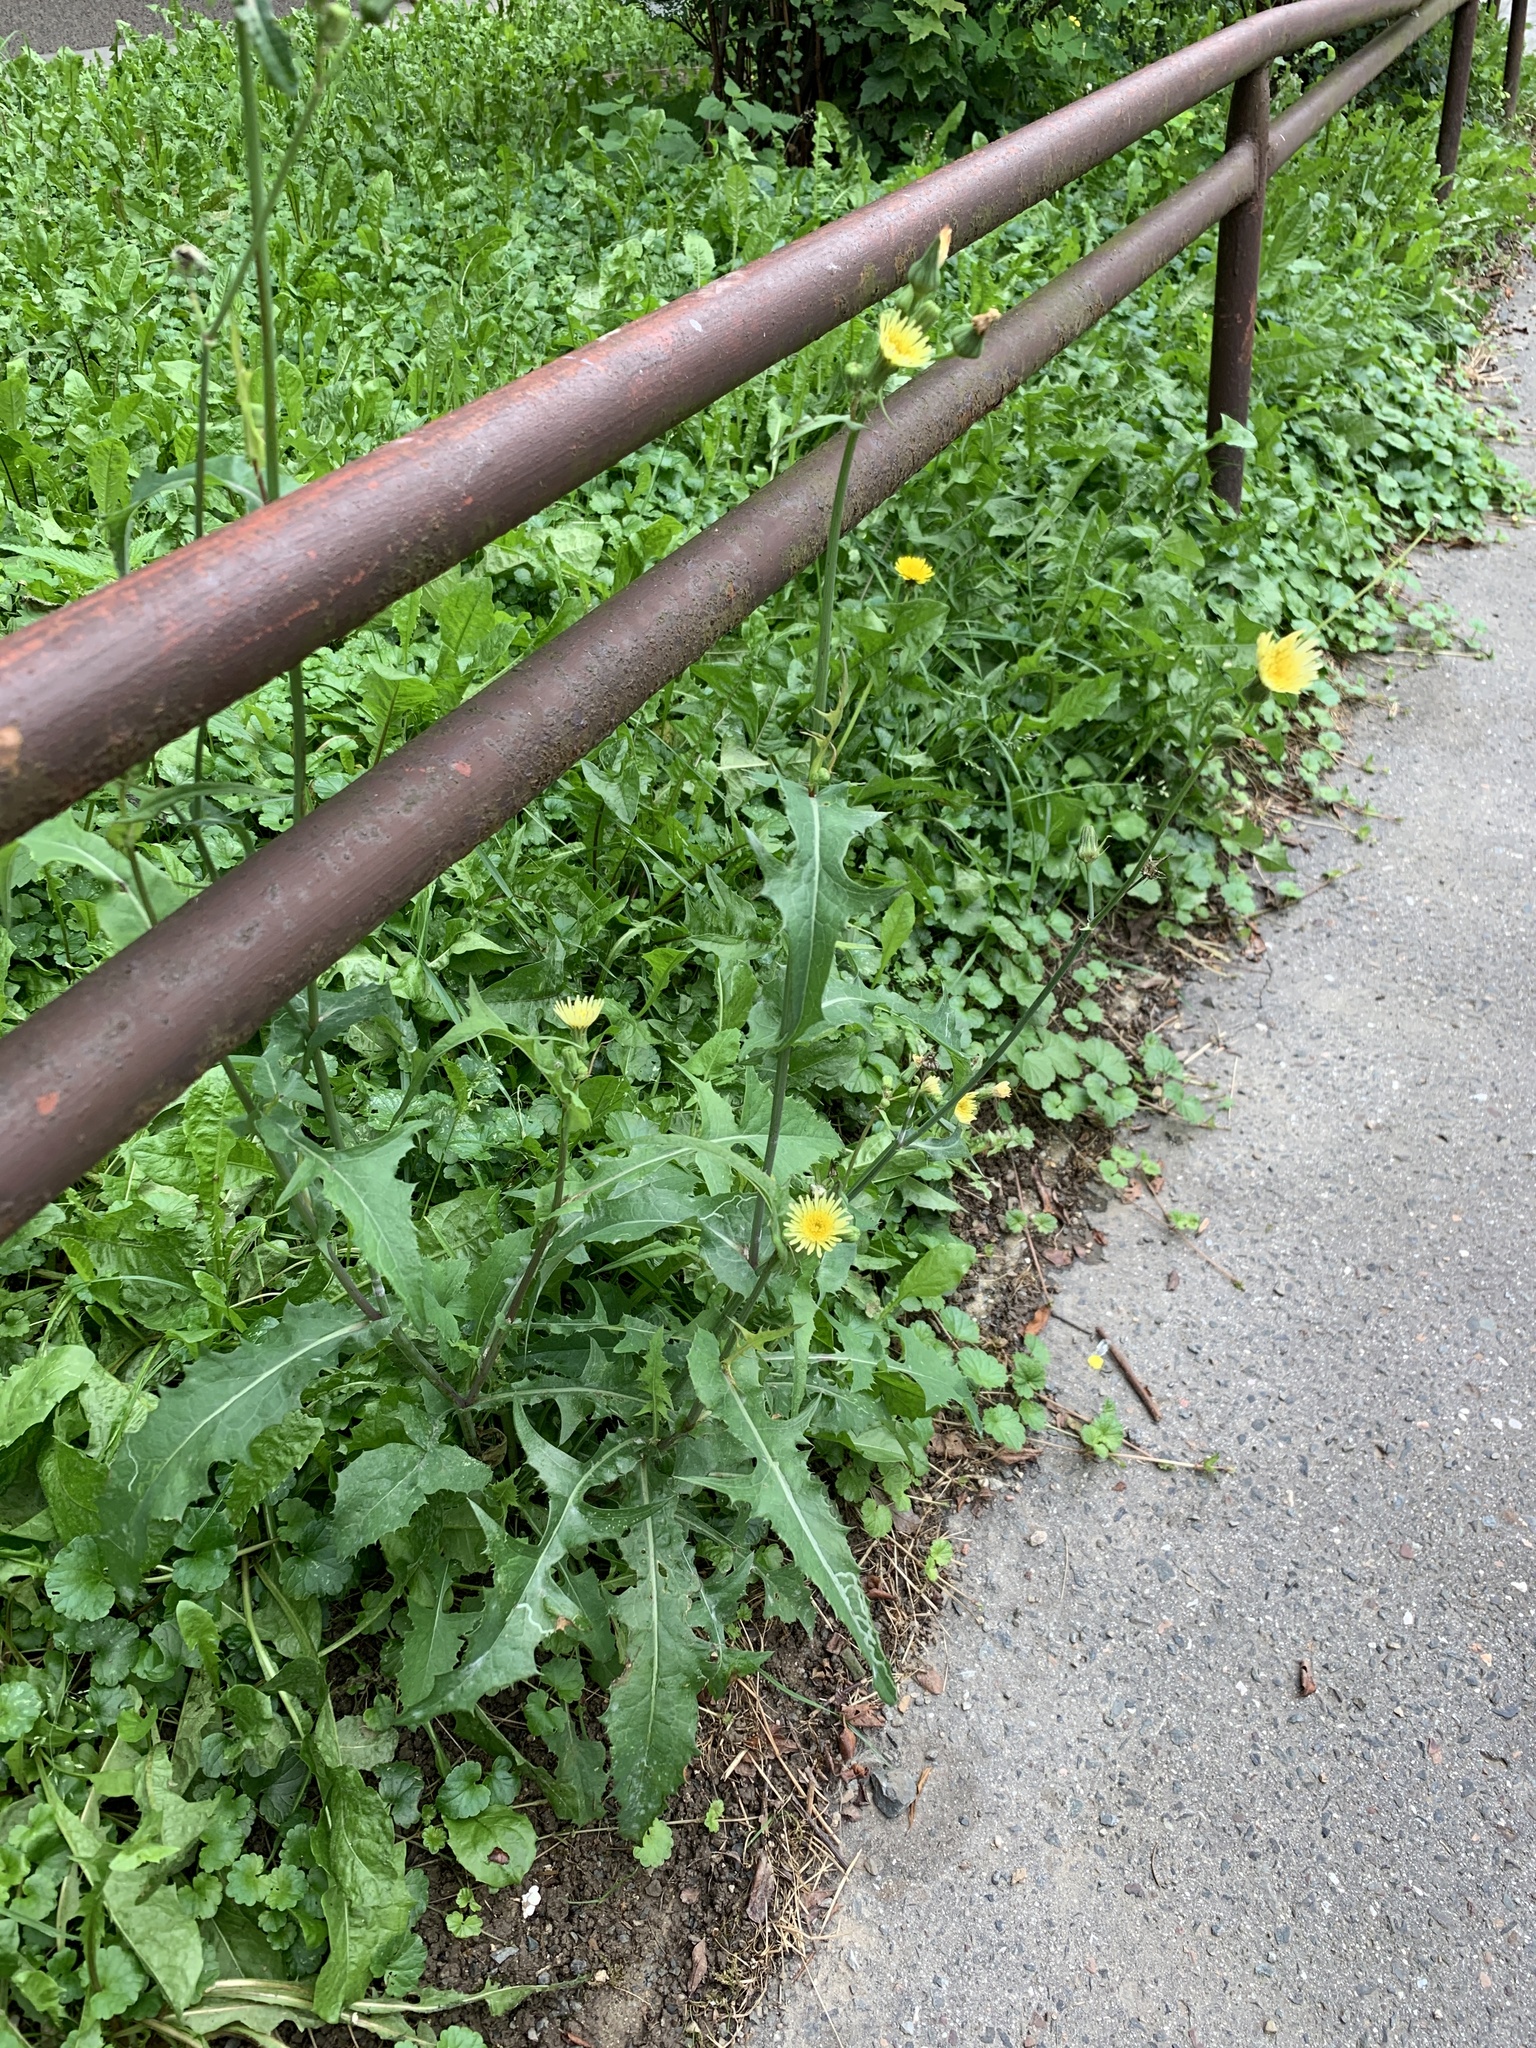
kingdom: Plantae
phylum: Tracheophyta
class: Magnoliopsida
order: Asterales
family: Asteraceae
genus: Sonchus
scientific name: Sonchus oleraceus
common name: Common sowthistle
